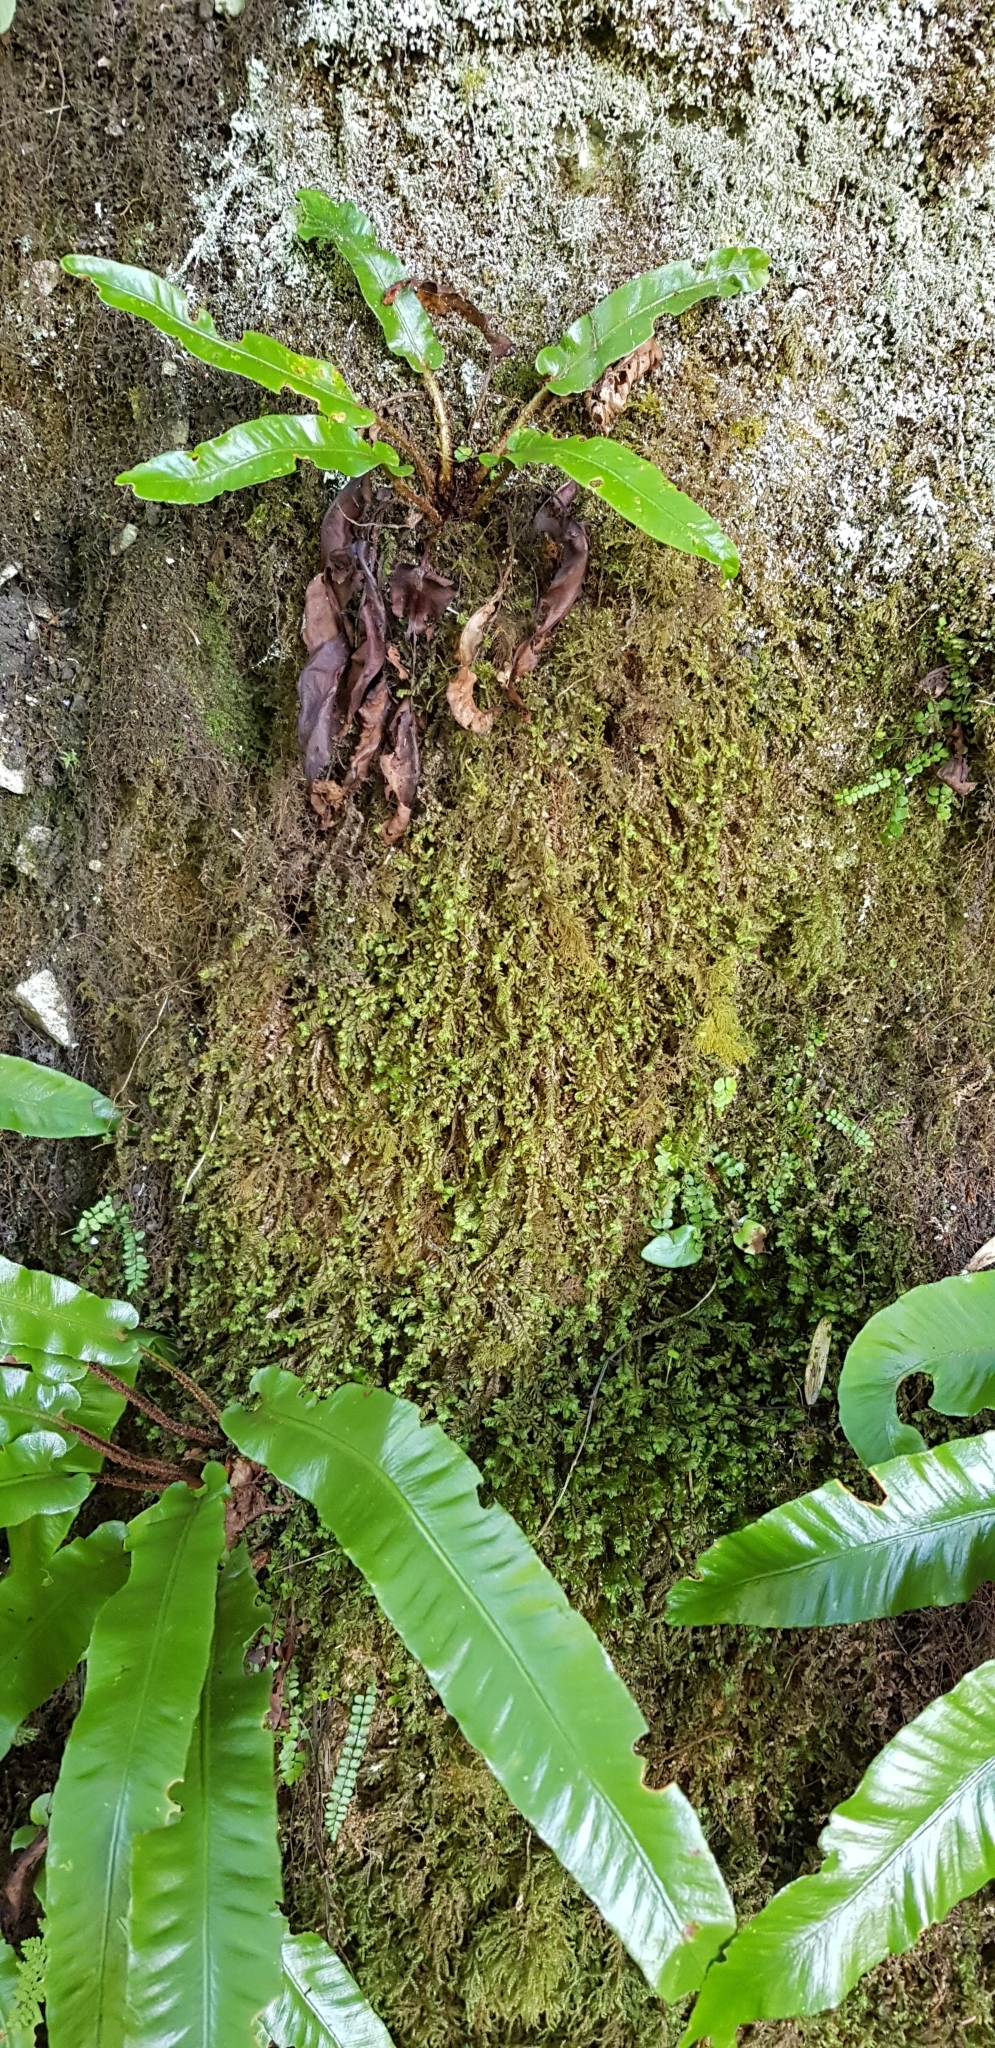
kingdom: Plantae
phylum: Marchantiophyta
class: Jungermanniopsida
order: Jungermanniales
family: Plagiochilaceae
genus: Plagiochila
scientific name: Plagiochila asplenioides
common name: Greater featherwort
